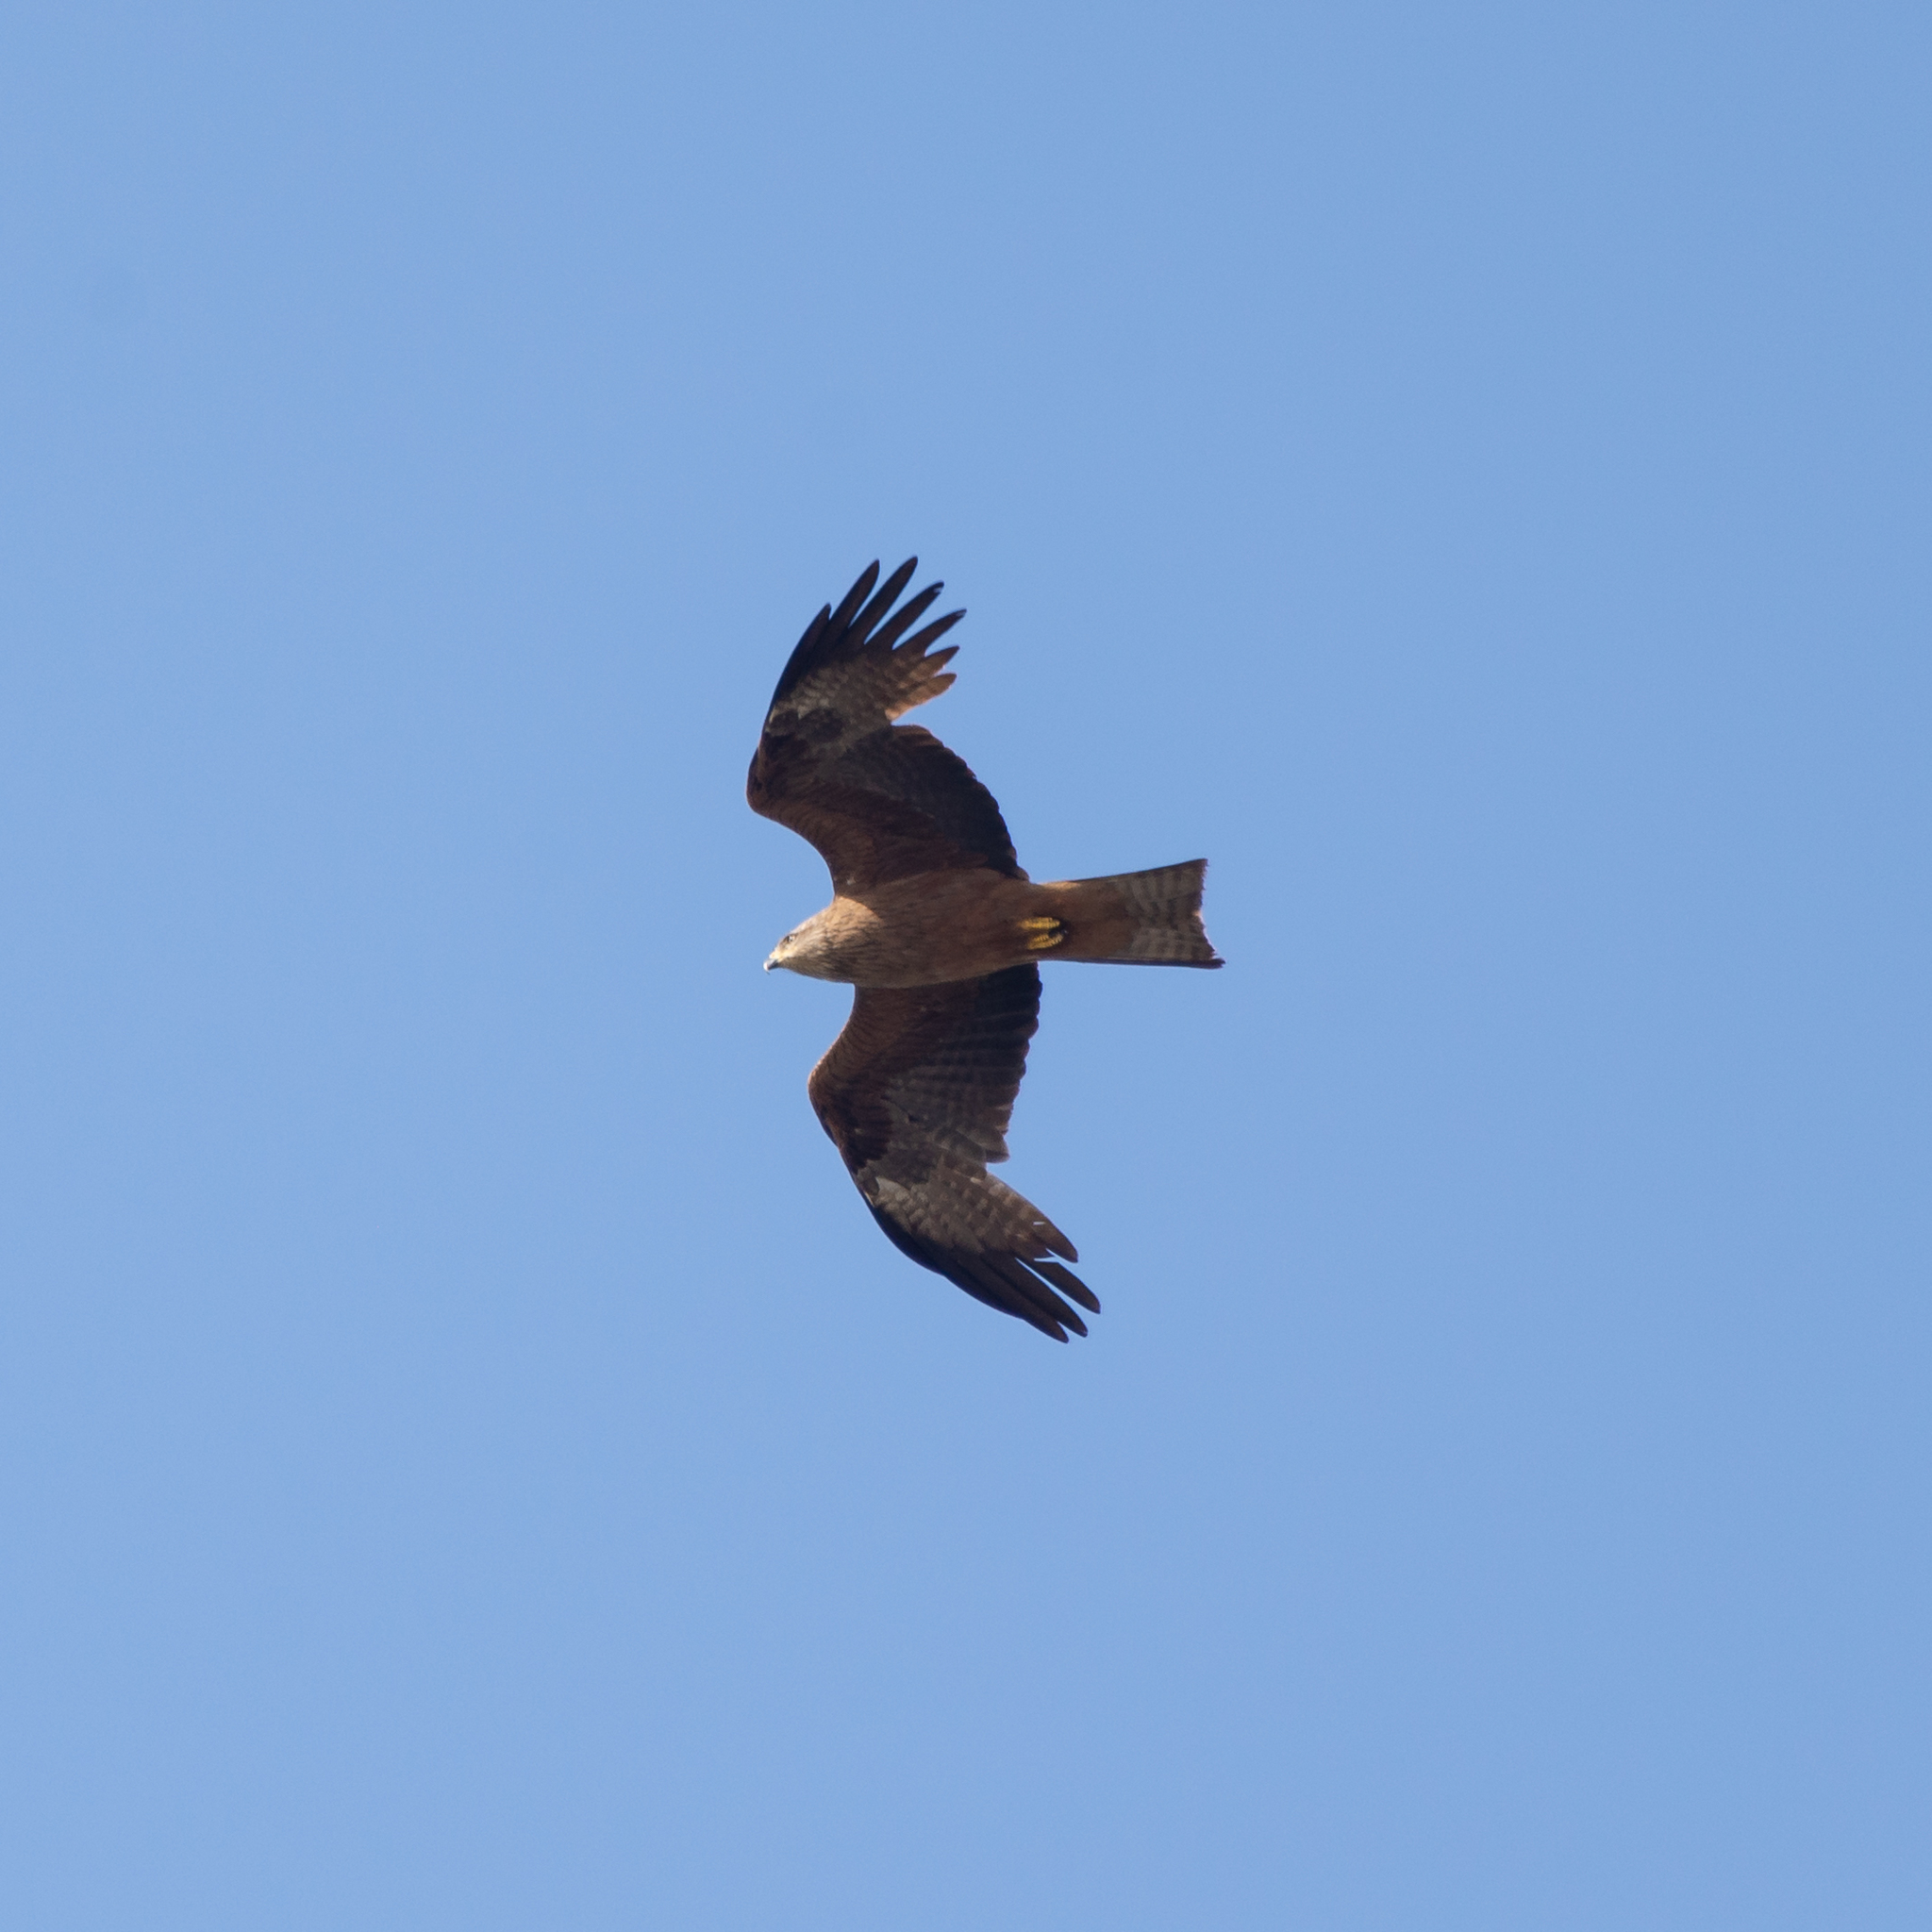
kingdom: Animalia
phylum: Chordata
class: Aves
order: Accipitriformes
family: Accipitridae
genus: Milvus
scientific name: Milvus migrans
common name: Black kite
